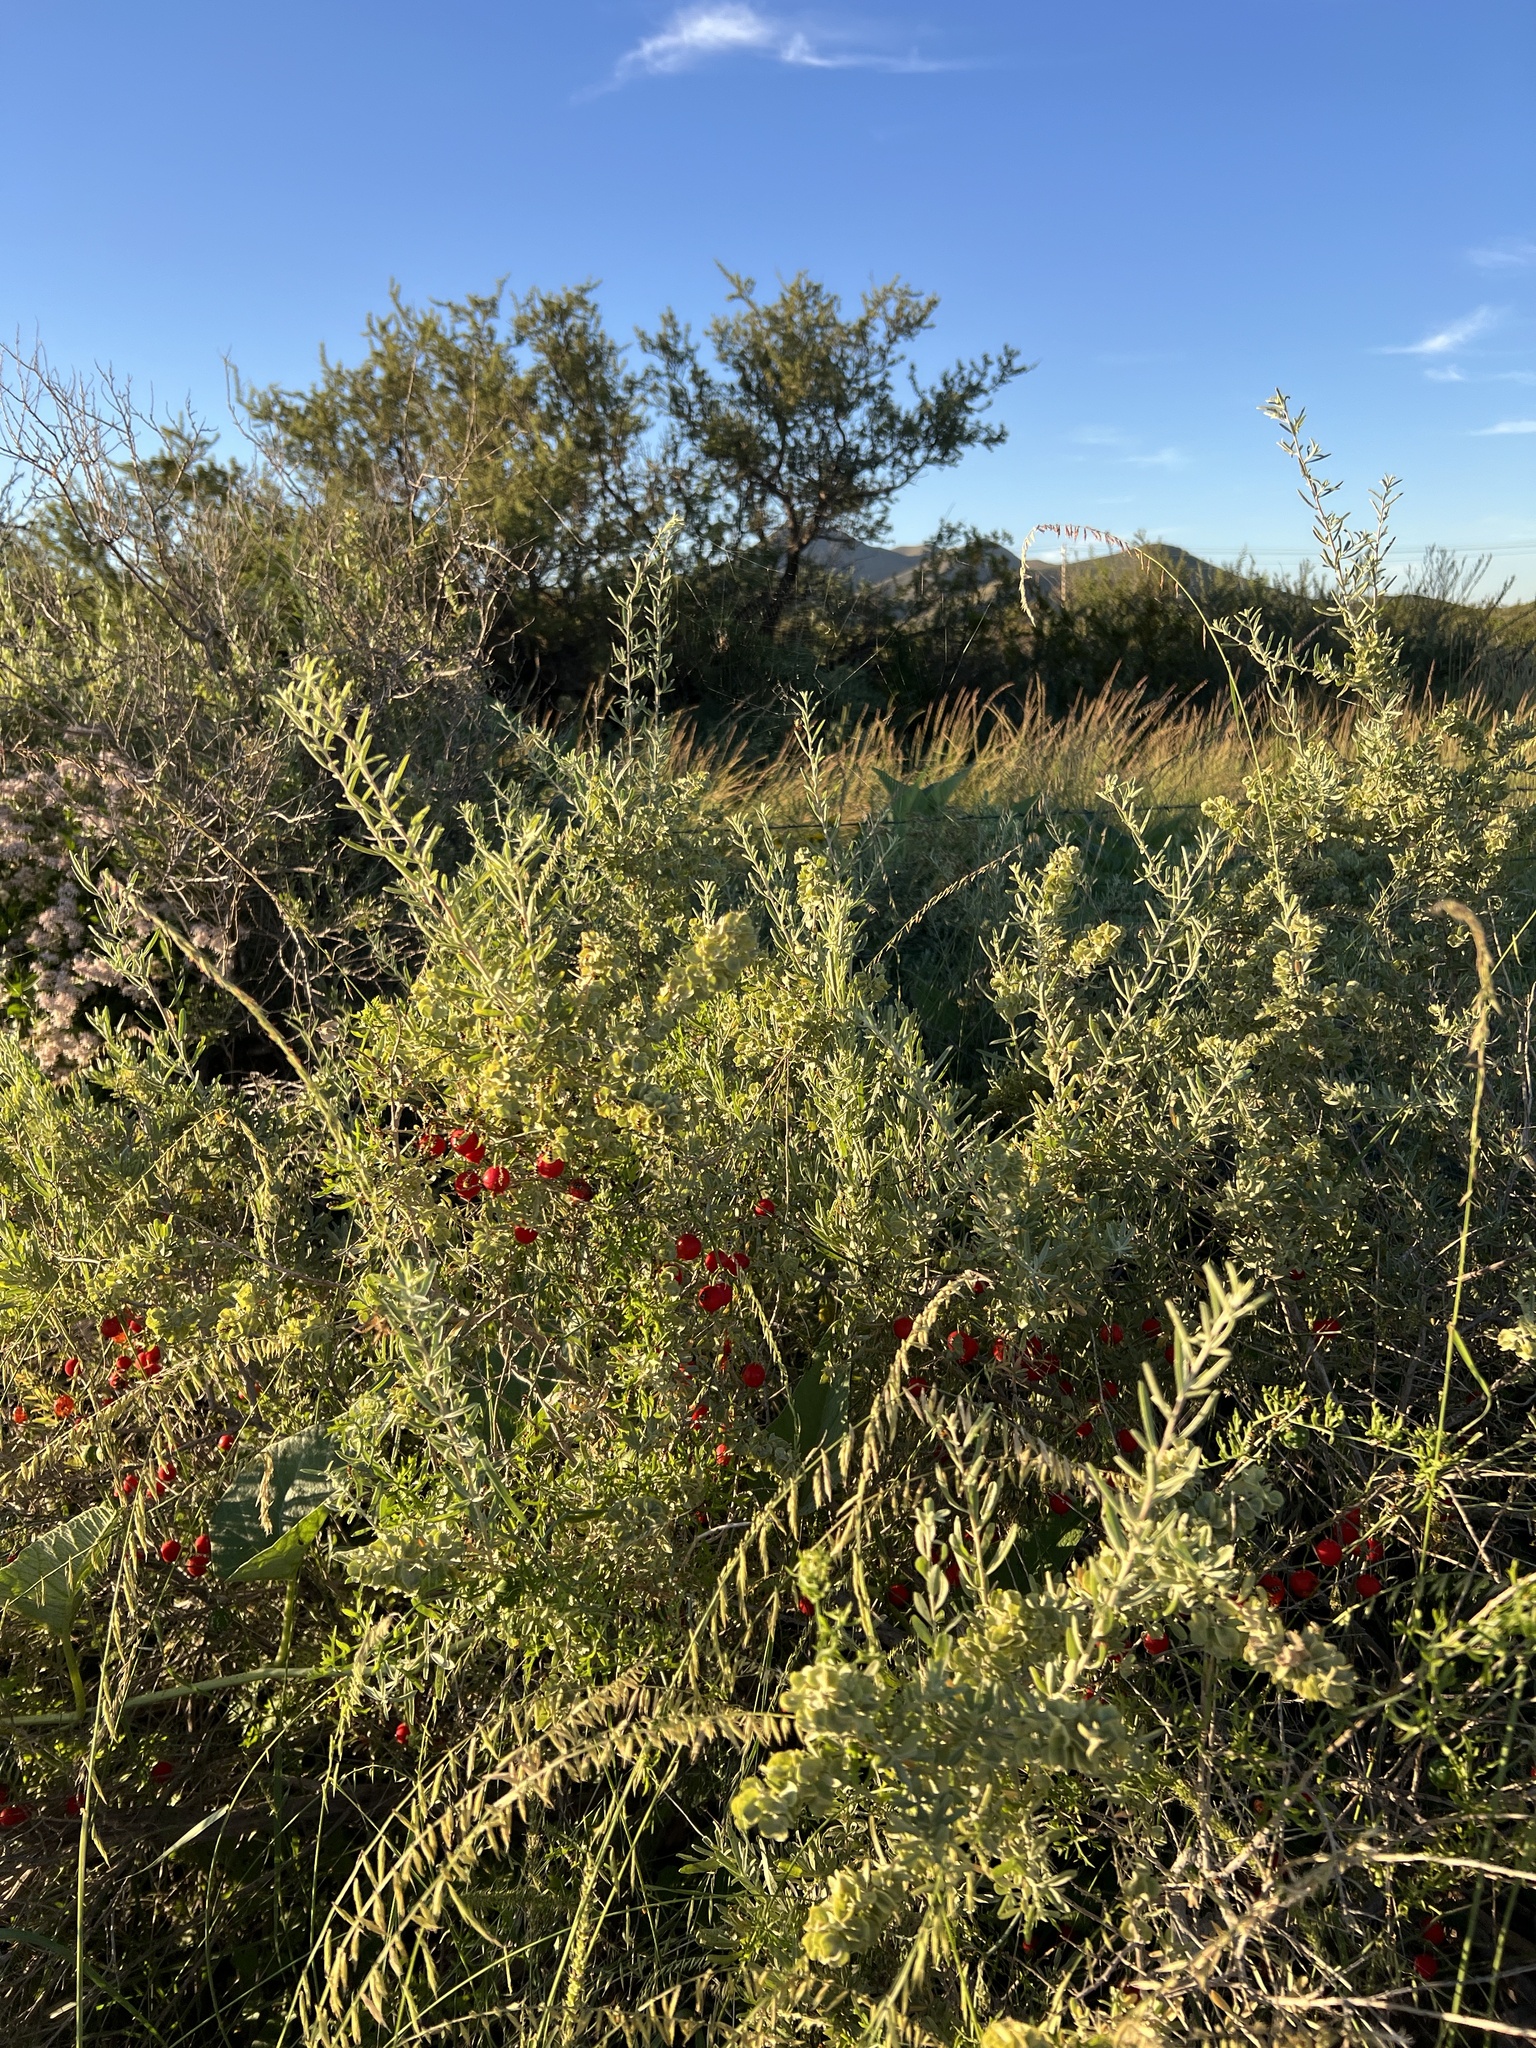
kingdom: Plantae
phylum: Tracheophyta
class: Magnoliopsida
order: Caryophyllales
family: Amaranthaceae
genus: Atriplex
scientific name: Atriplex canescens
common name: Four-wing saltbush
